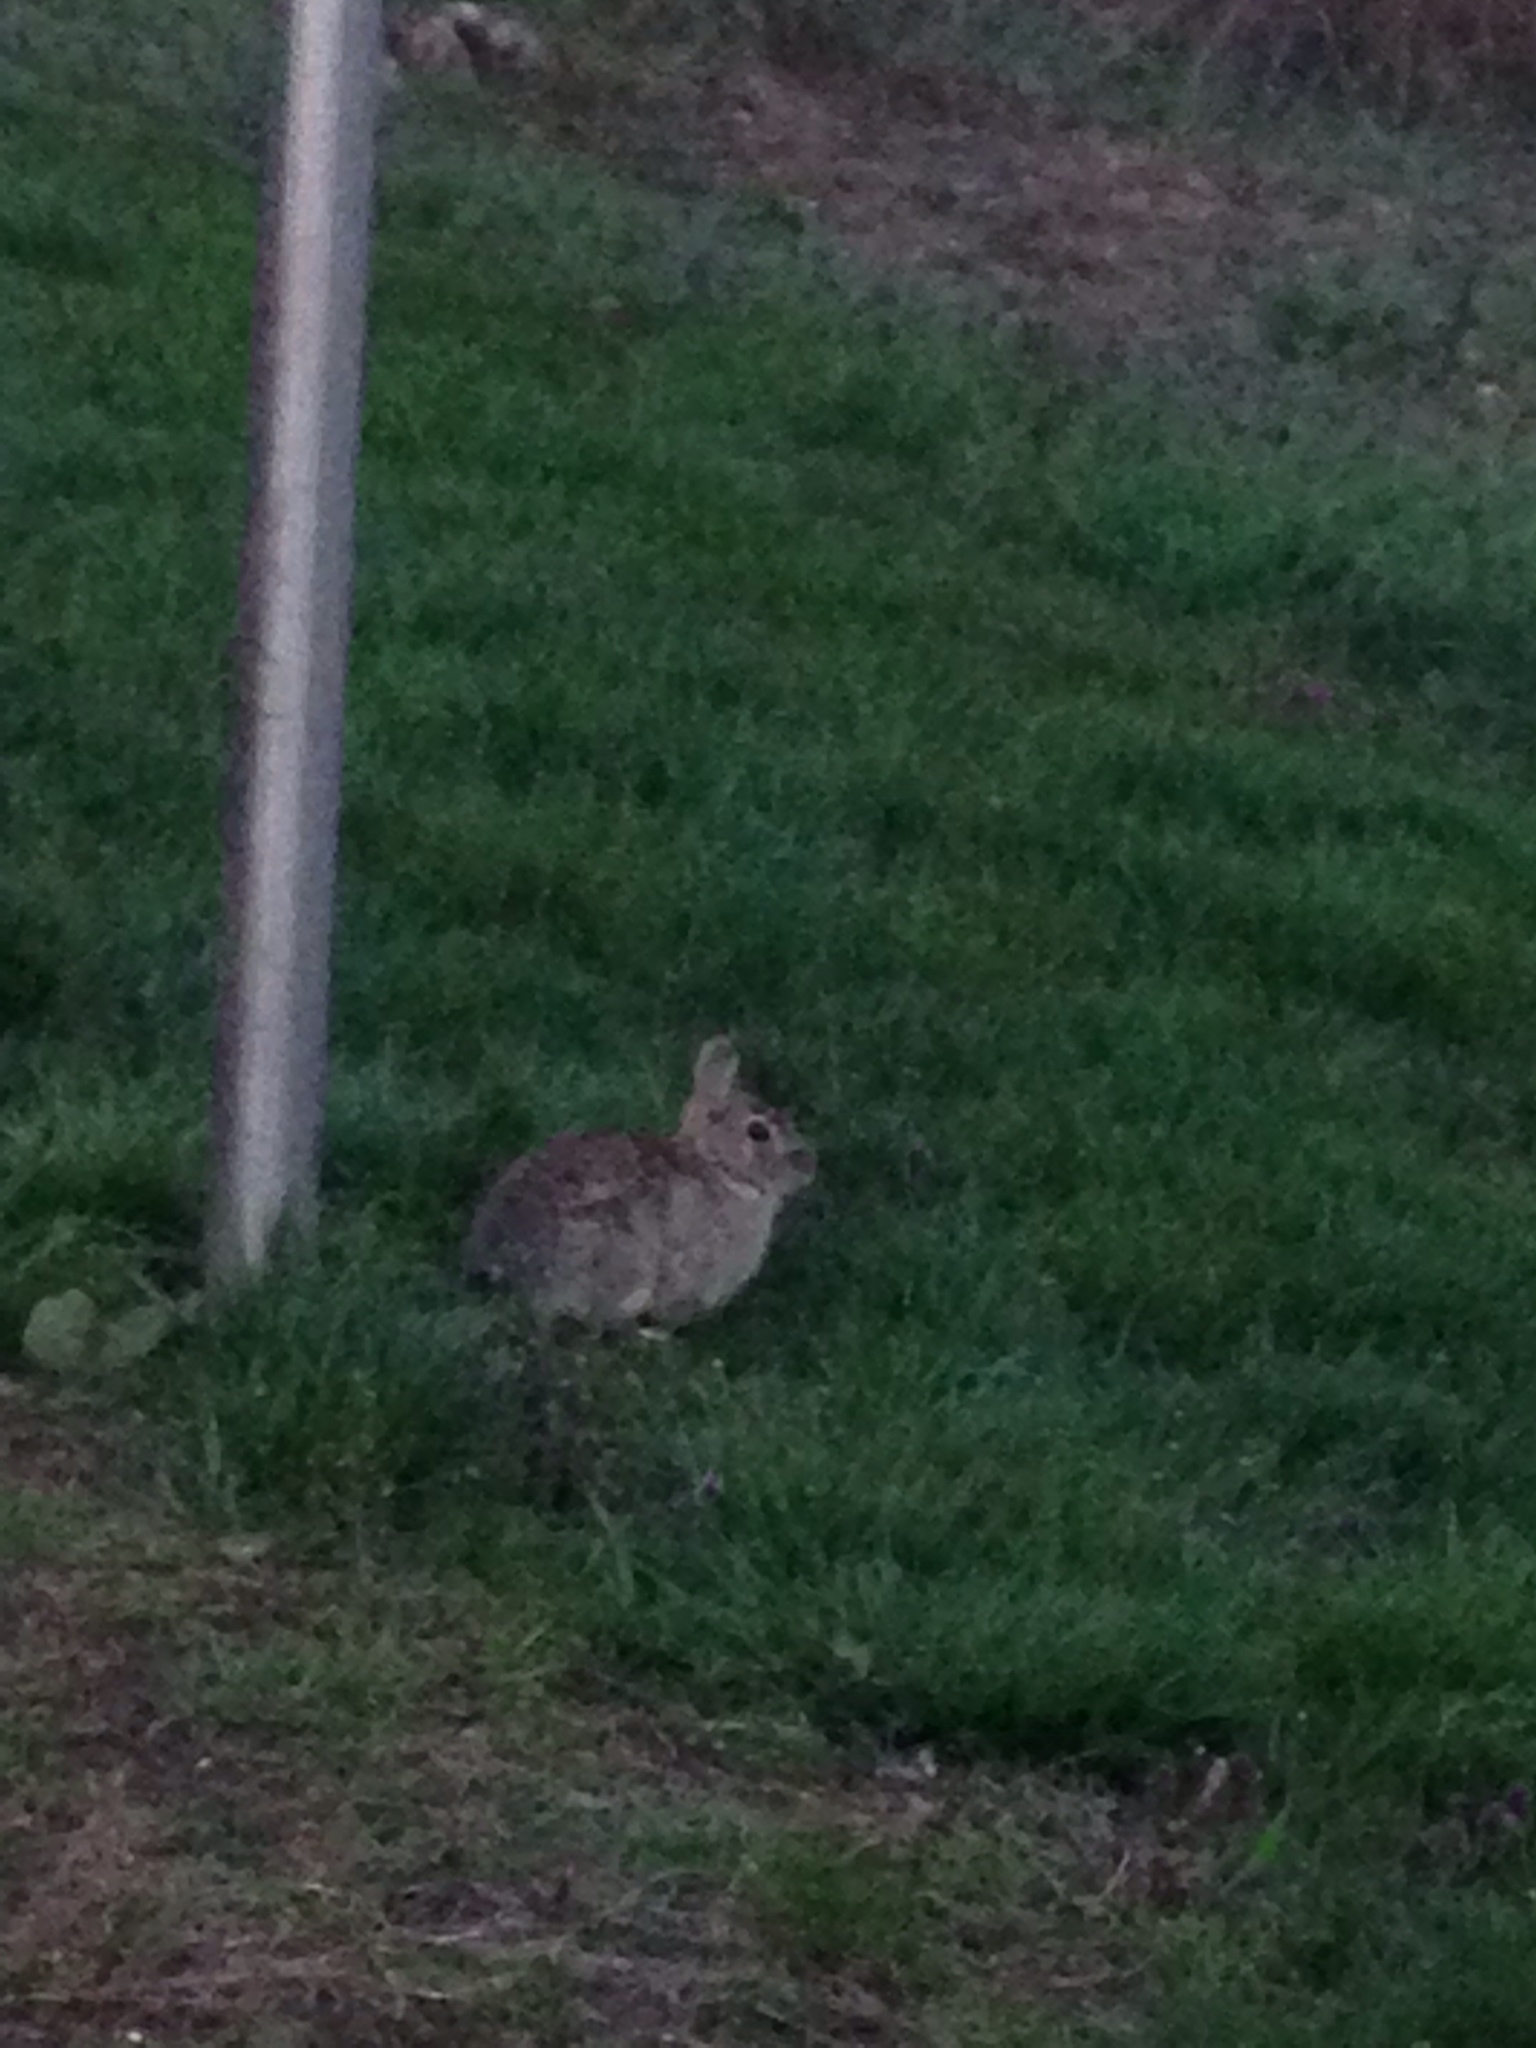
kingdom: Animalia
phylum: Chordata
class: Mammalia
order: Lagomorpha
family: Leporidae
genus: Sylvilagus
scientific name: Sylvilagus floridanus
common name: Eastern cottontail
